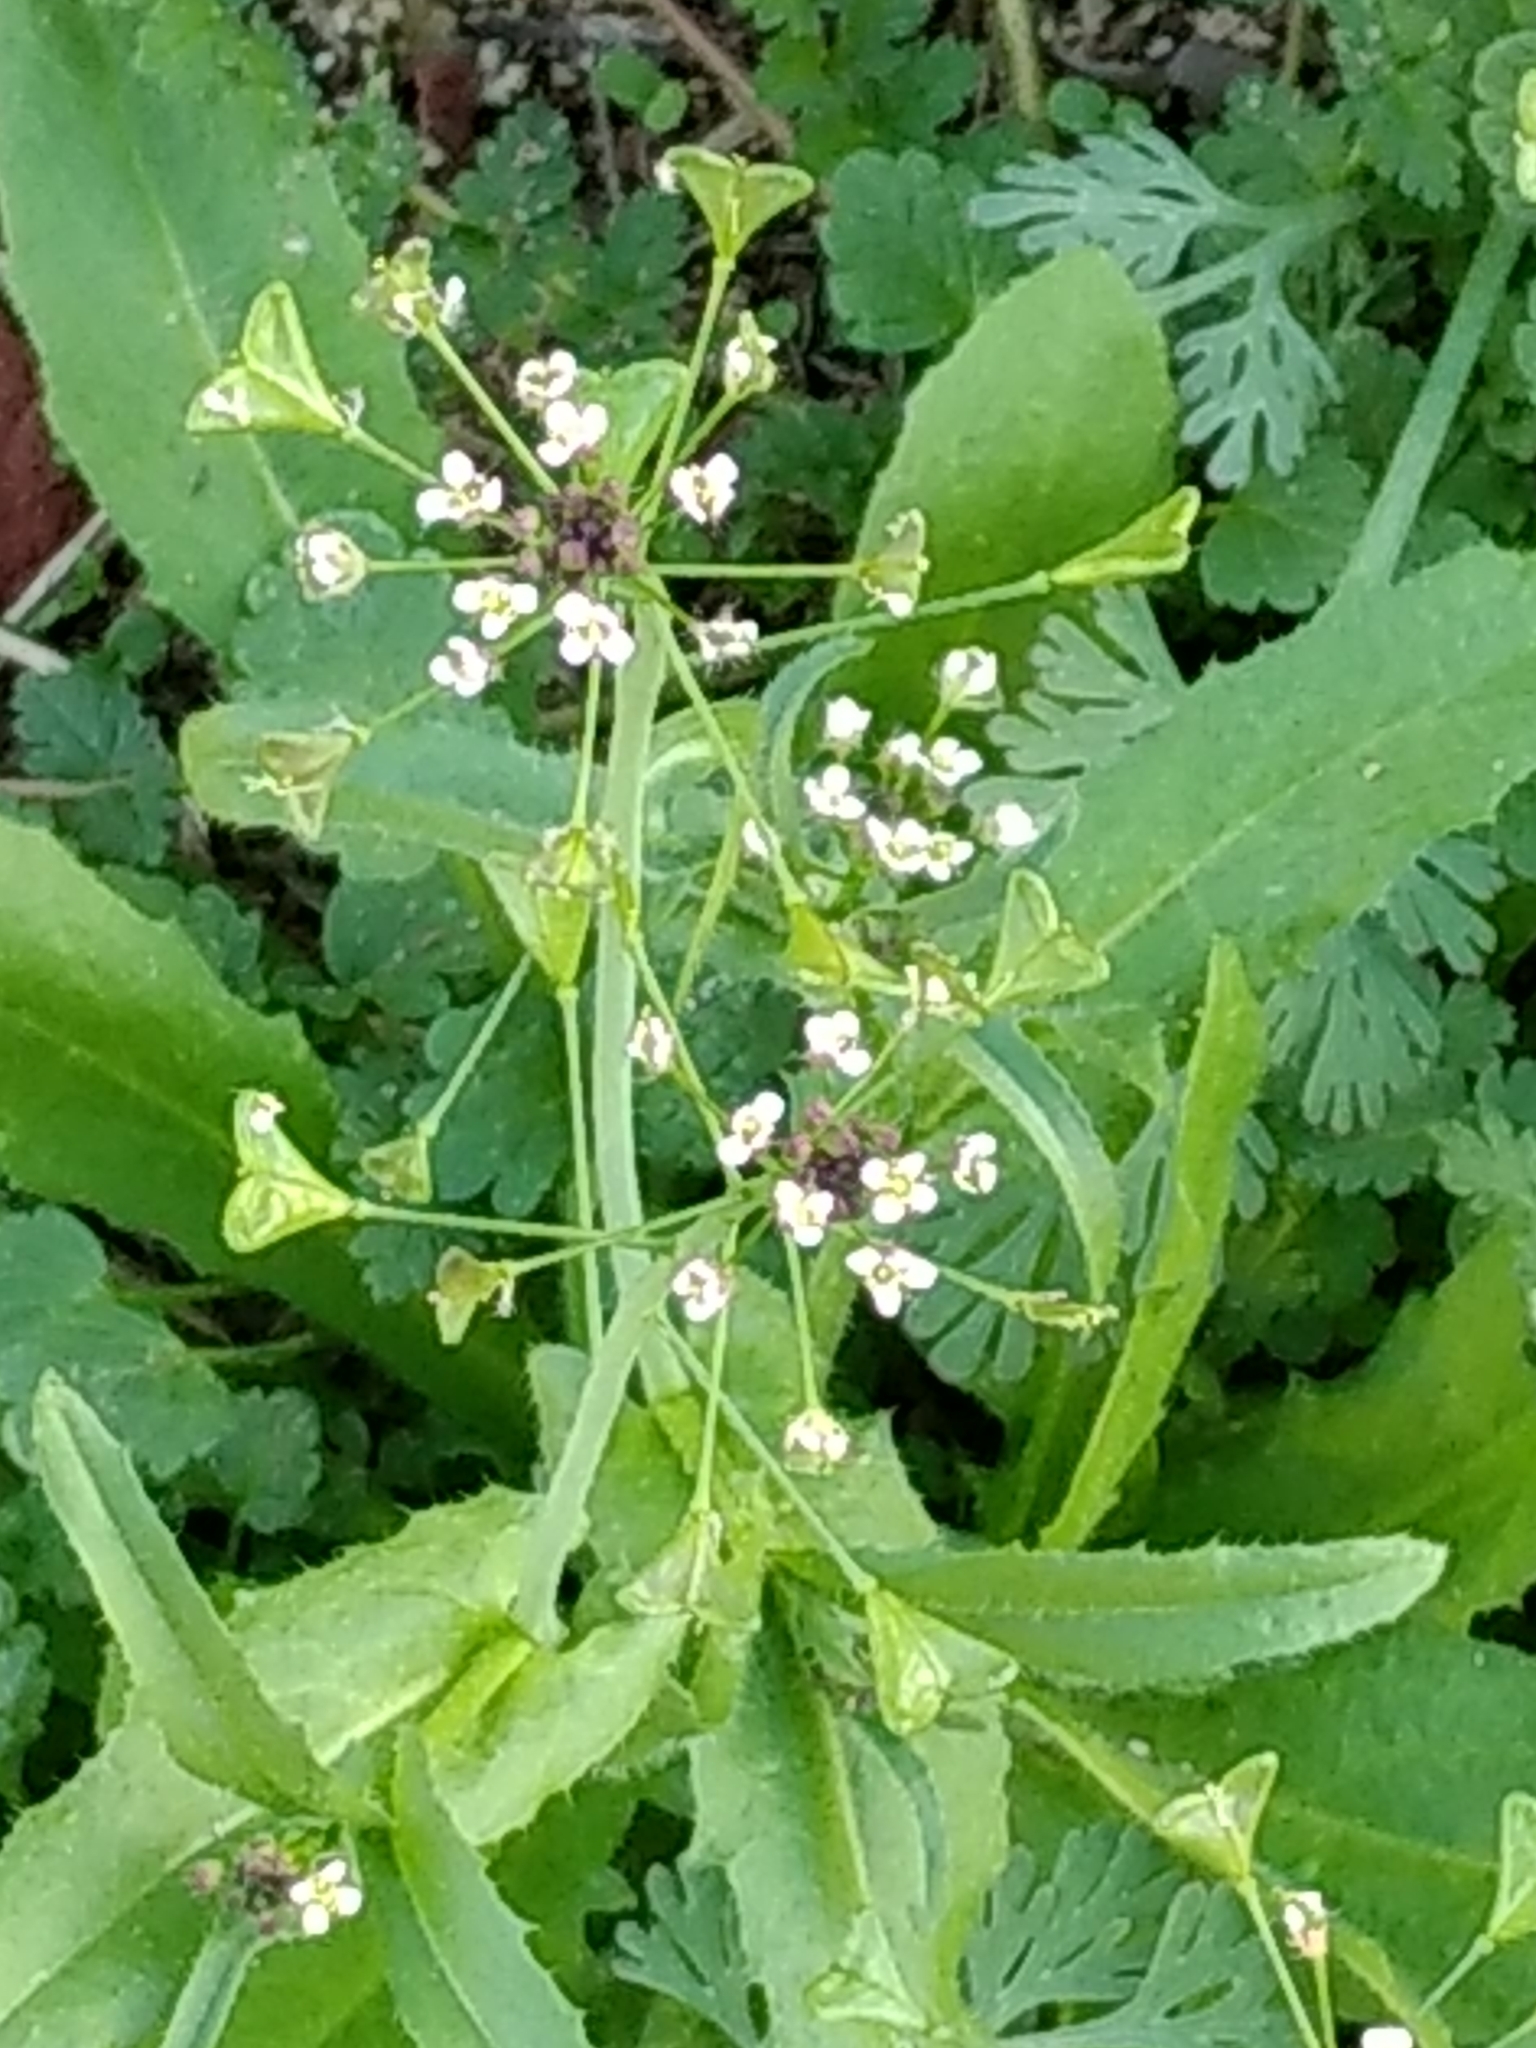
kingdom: Plantae
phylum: Tracheophyta
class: Magnoliopsida
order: Brassicales
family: Brassicaceae
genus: Capsella
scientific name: Capsella bursa-pastoris
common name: Shepherd's purse
